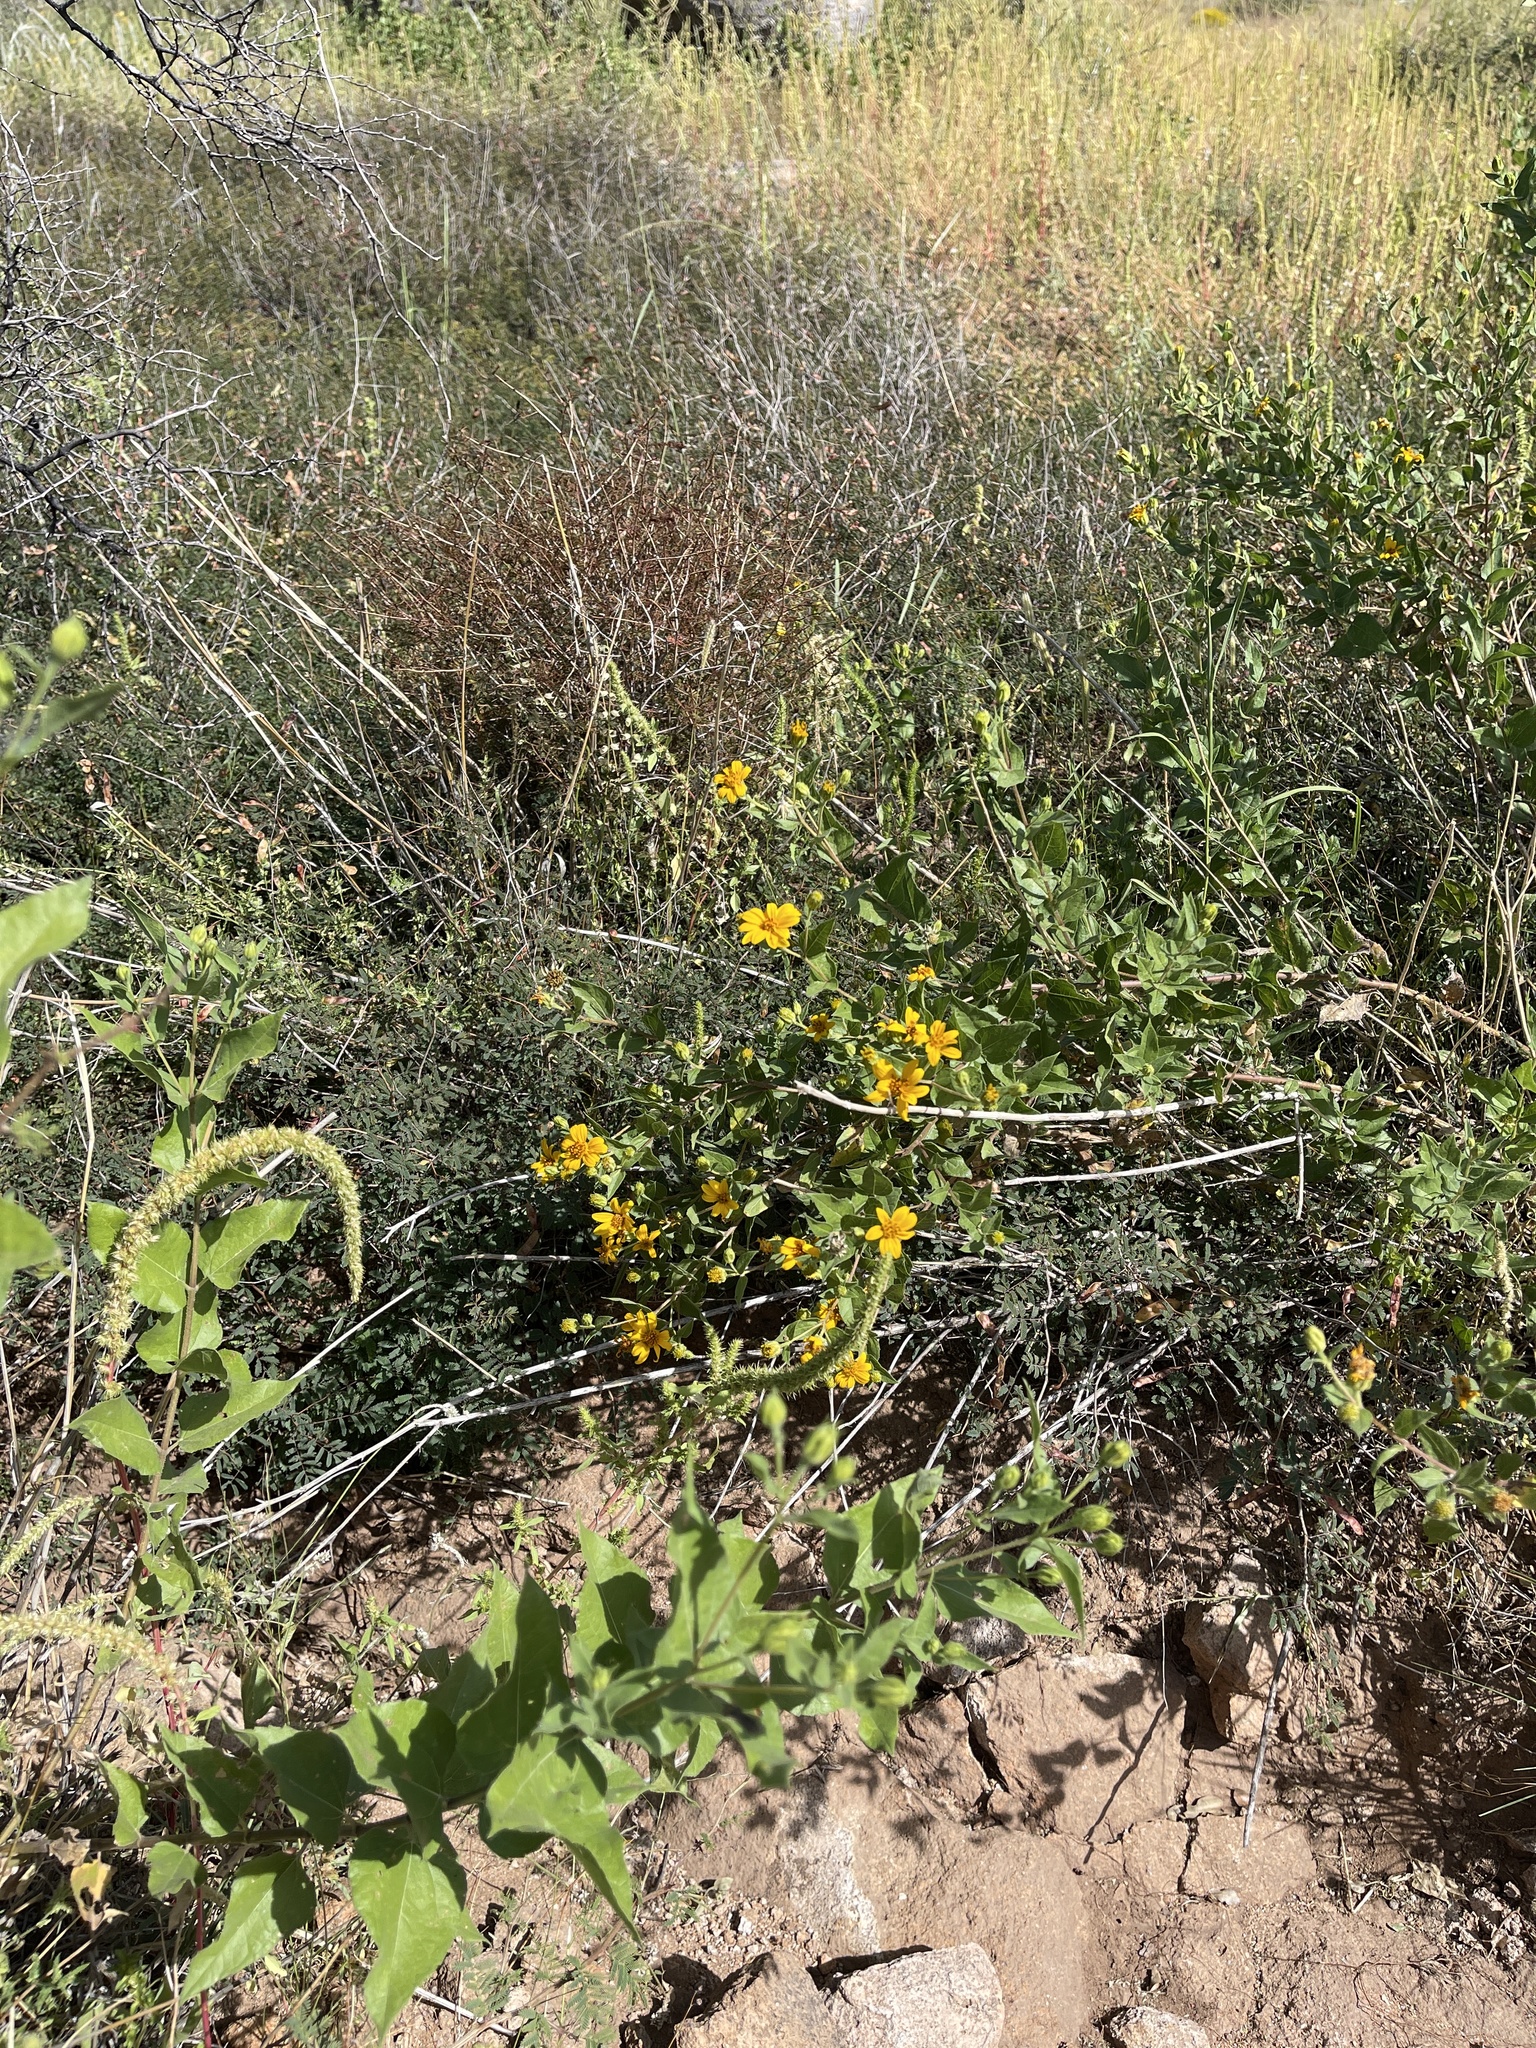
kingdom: Plantae
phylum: Tracheophyta
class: Magnoliopsida
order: Asterales
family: Asteraceae
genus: Aldama
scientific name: Aldama cordifolia
